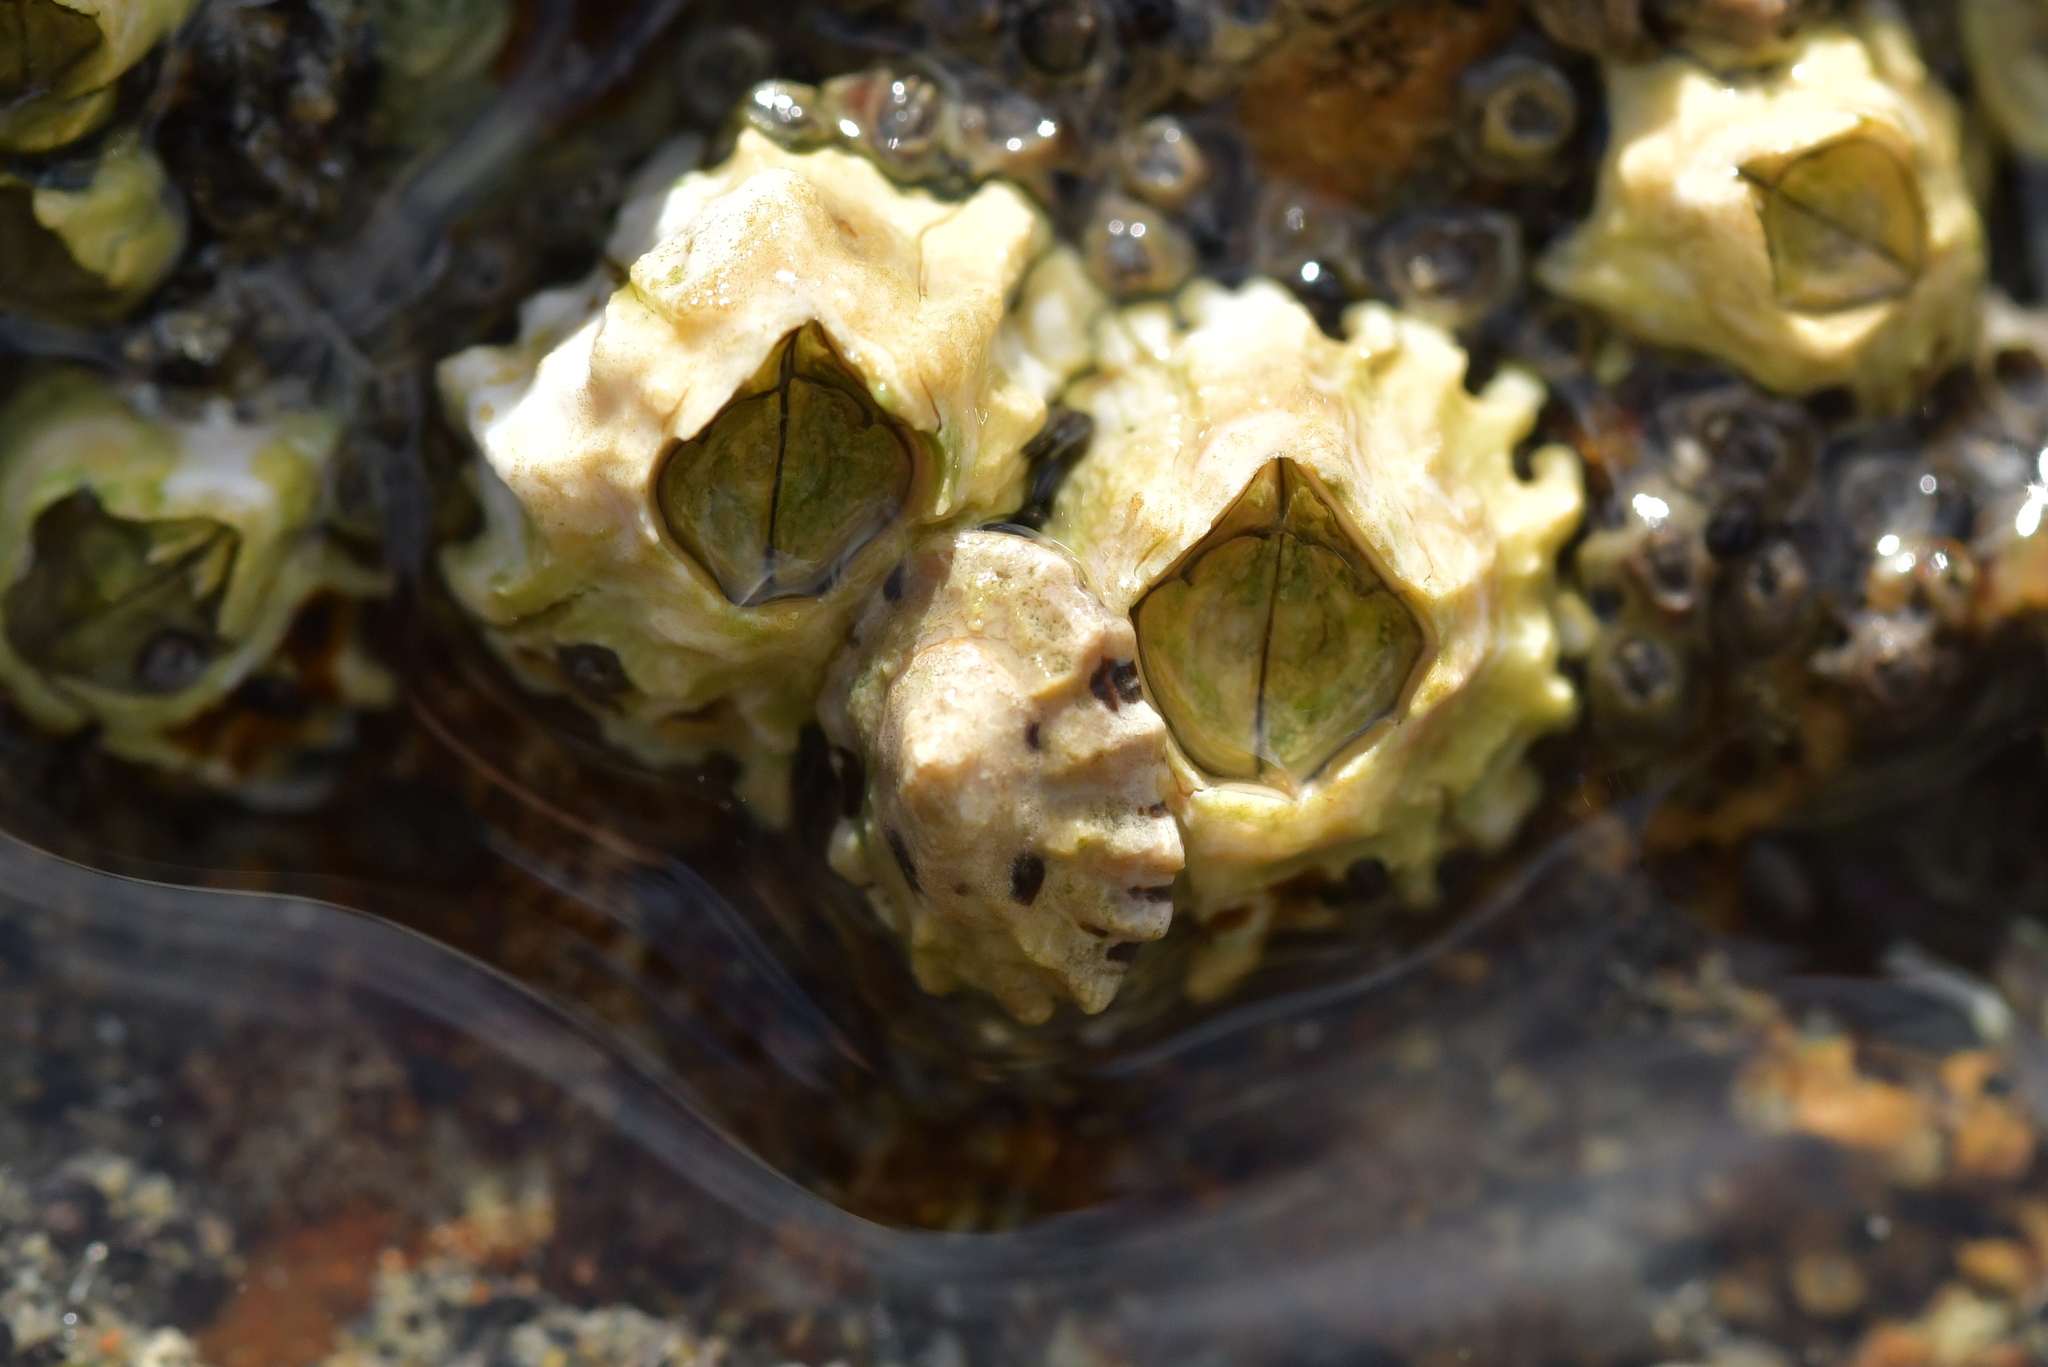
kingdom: Animalia
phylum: Mollusca
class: Gastropoda
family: Lottiidae
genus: Patelloida
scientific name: Patelloida corticata
